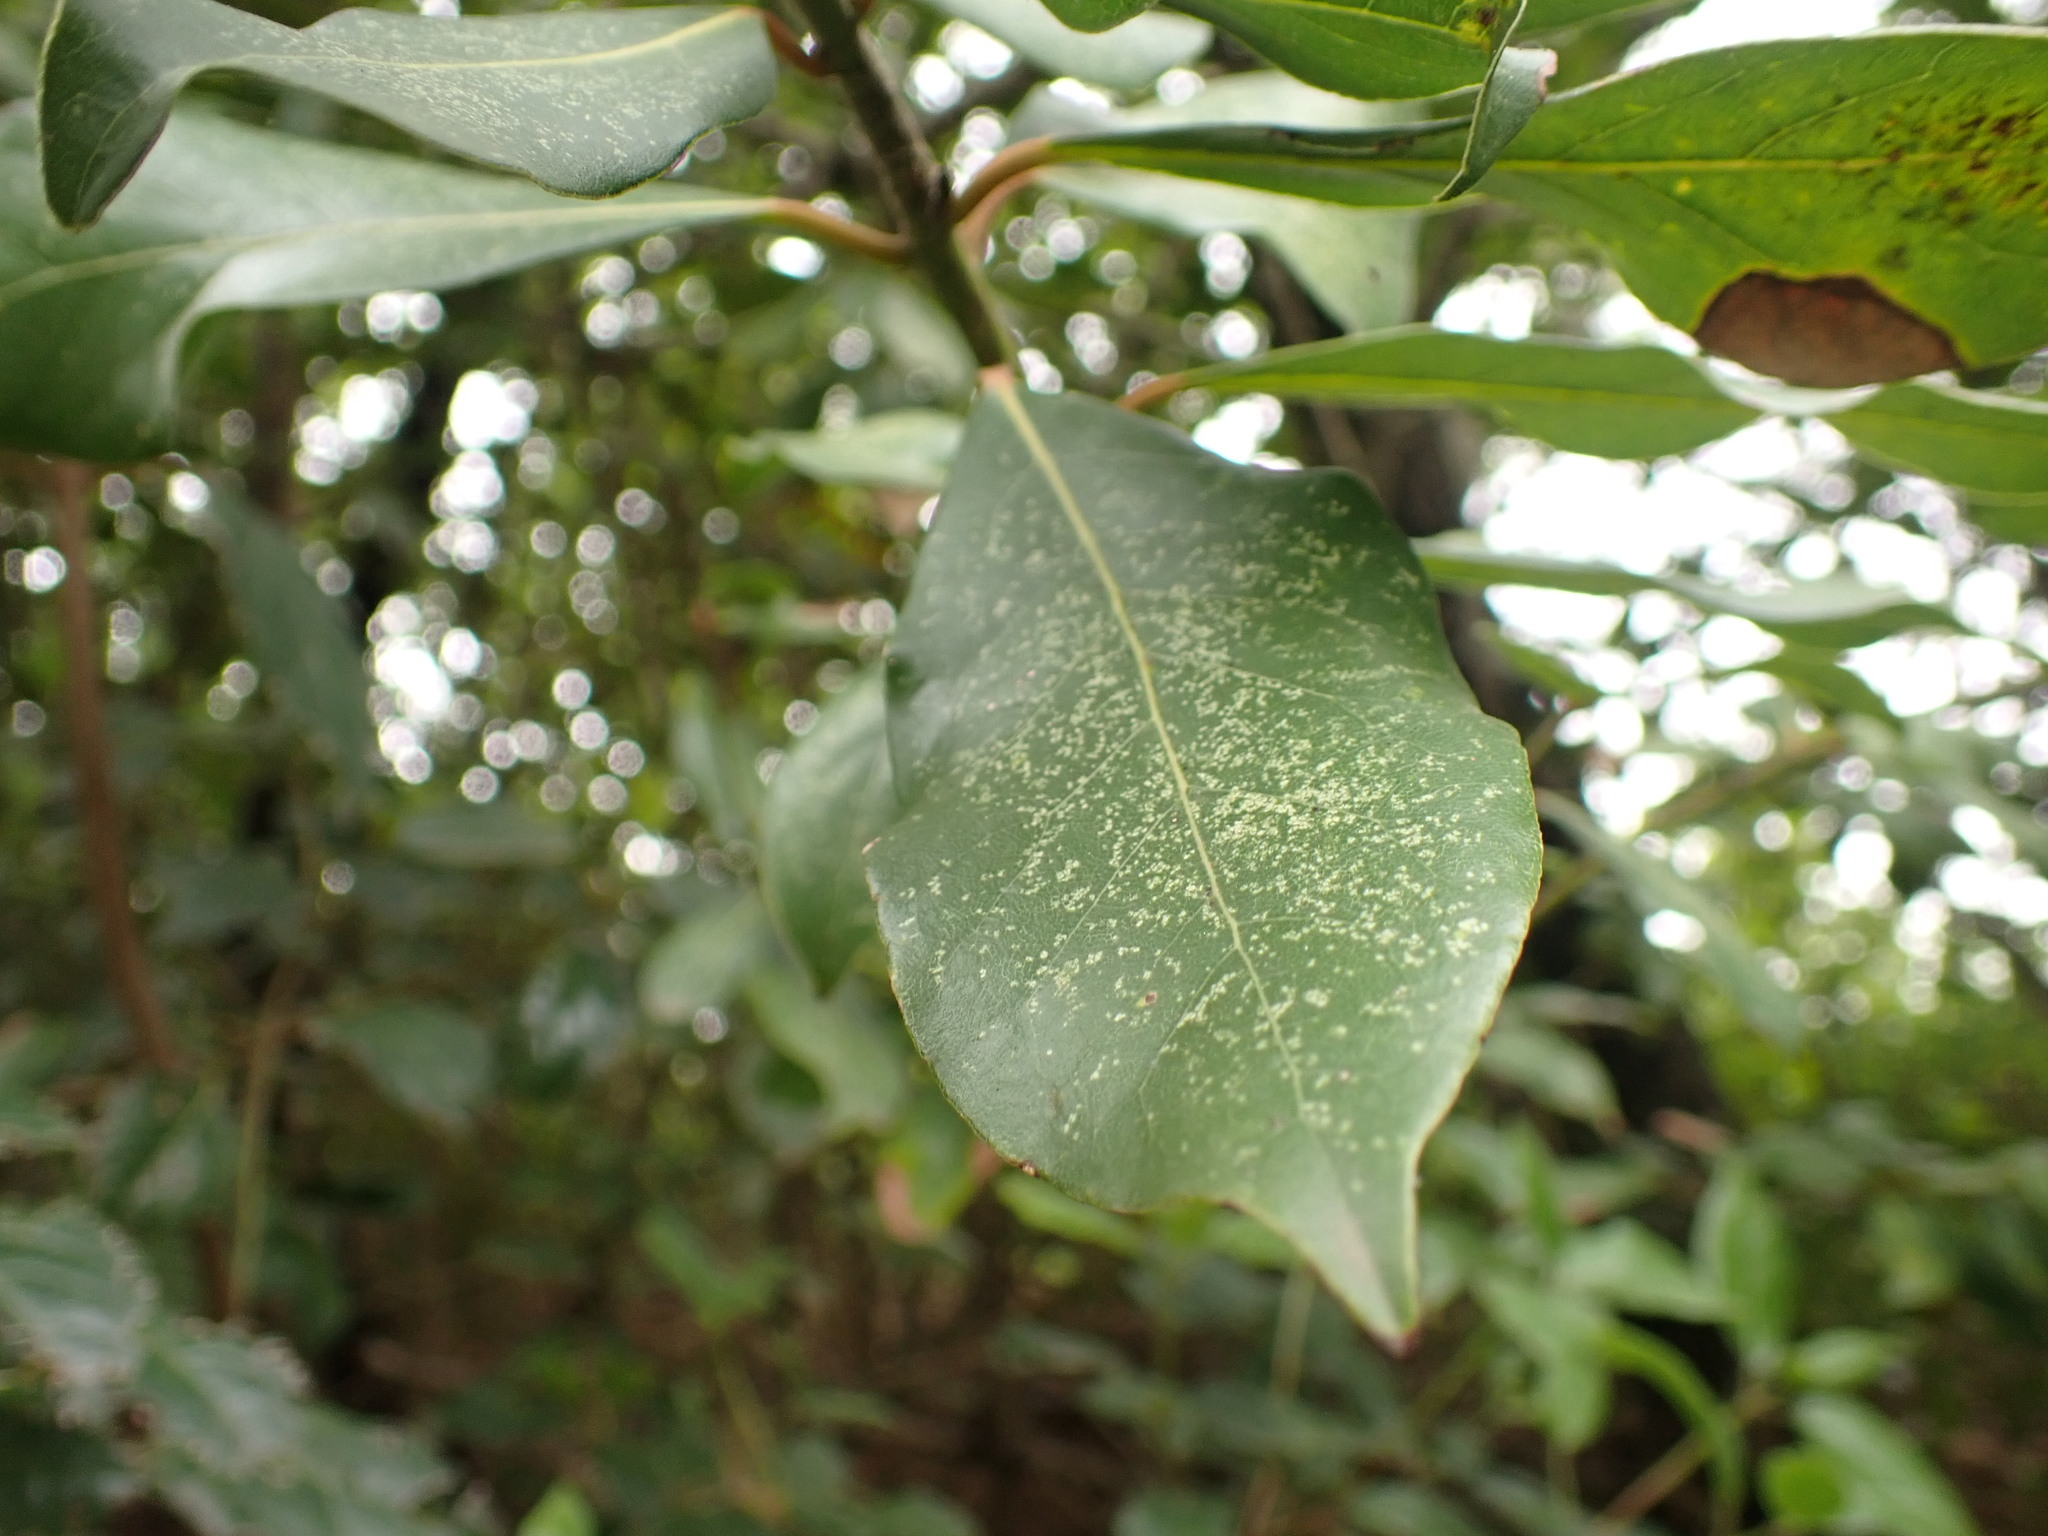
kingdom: Plantae
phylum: Tracheophyta
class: Magnoliopsida
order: Laurales
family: Lauraceae
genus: Laurus
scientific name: Laurus nobilis
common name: Bay
